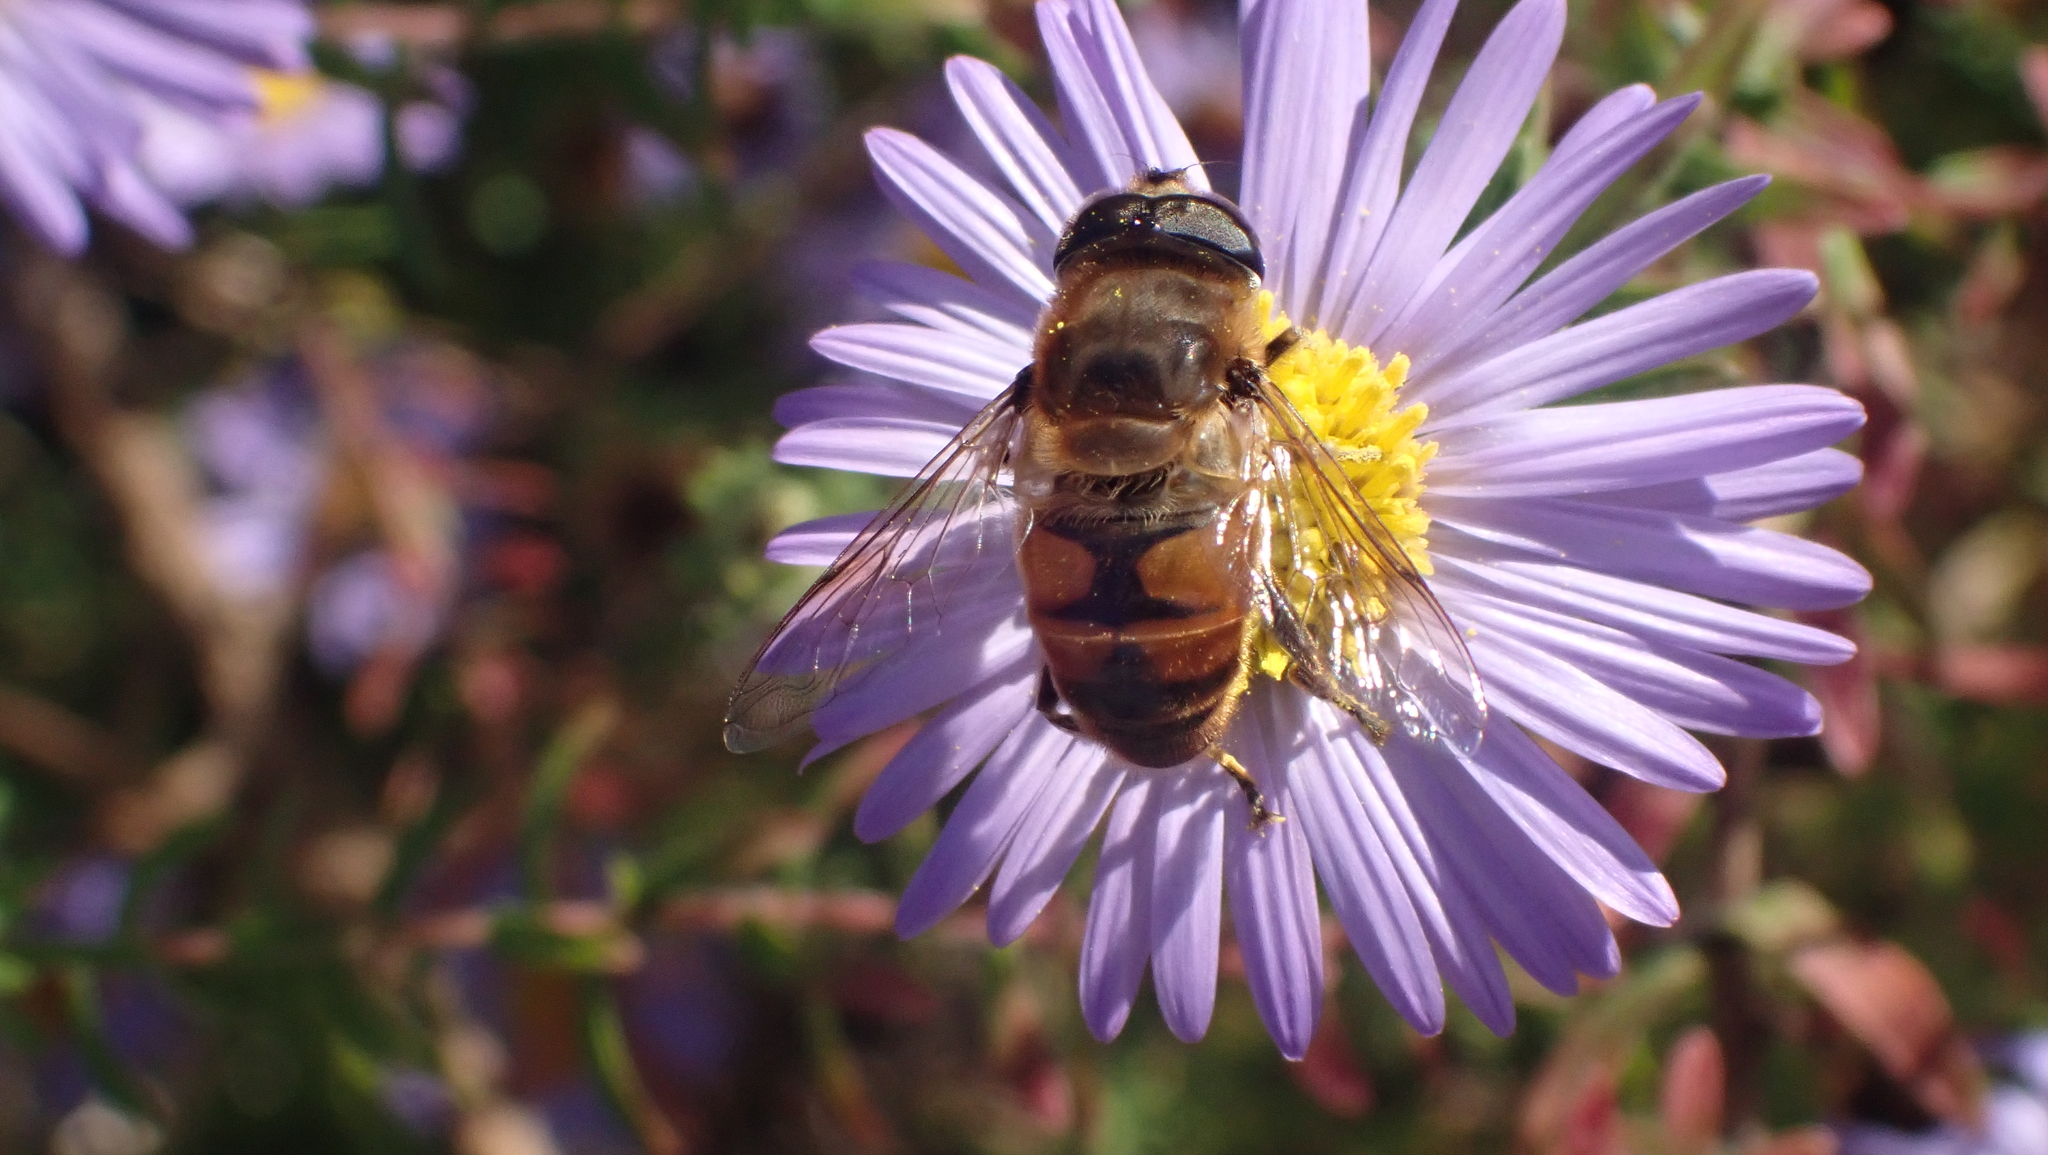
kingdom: Animalia
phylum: Arthropoda
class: Insecta
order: Diptera
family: Syrphidae
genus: Eristalis
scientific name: Eristalis tenax
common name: Drone fly
